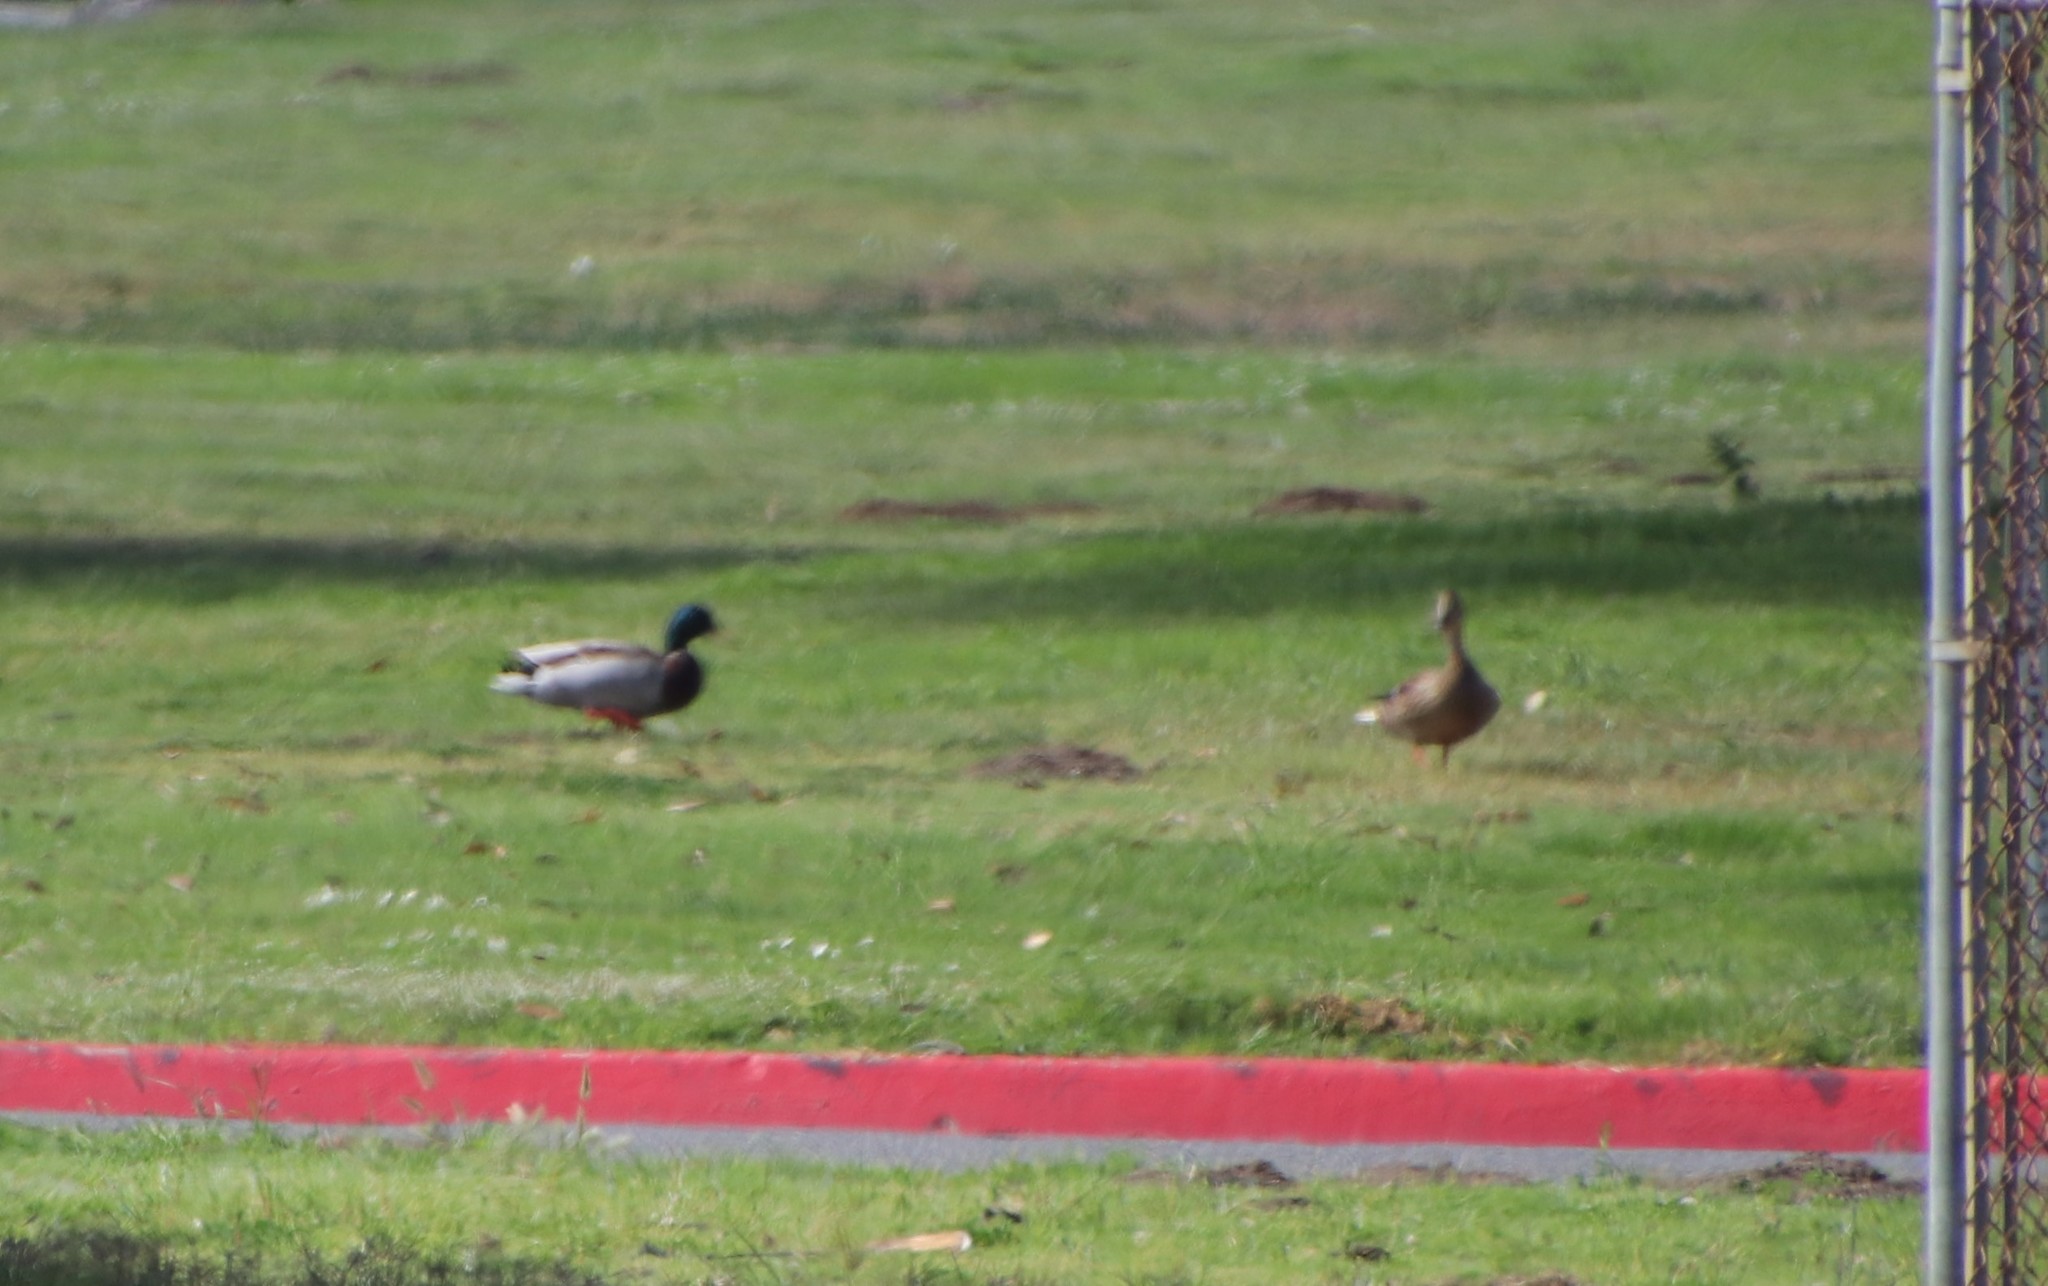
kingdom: Animalia
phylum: Chordata
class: Aves
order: Anseriformes
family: Anatidae
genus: Anas
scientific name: Anas platyrhynchos
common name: Mallard
